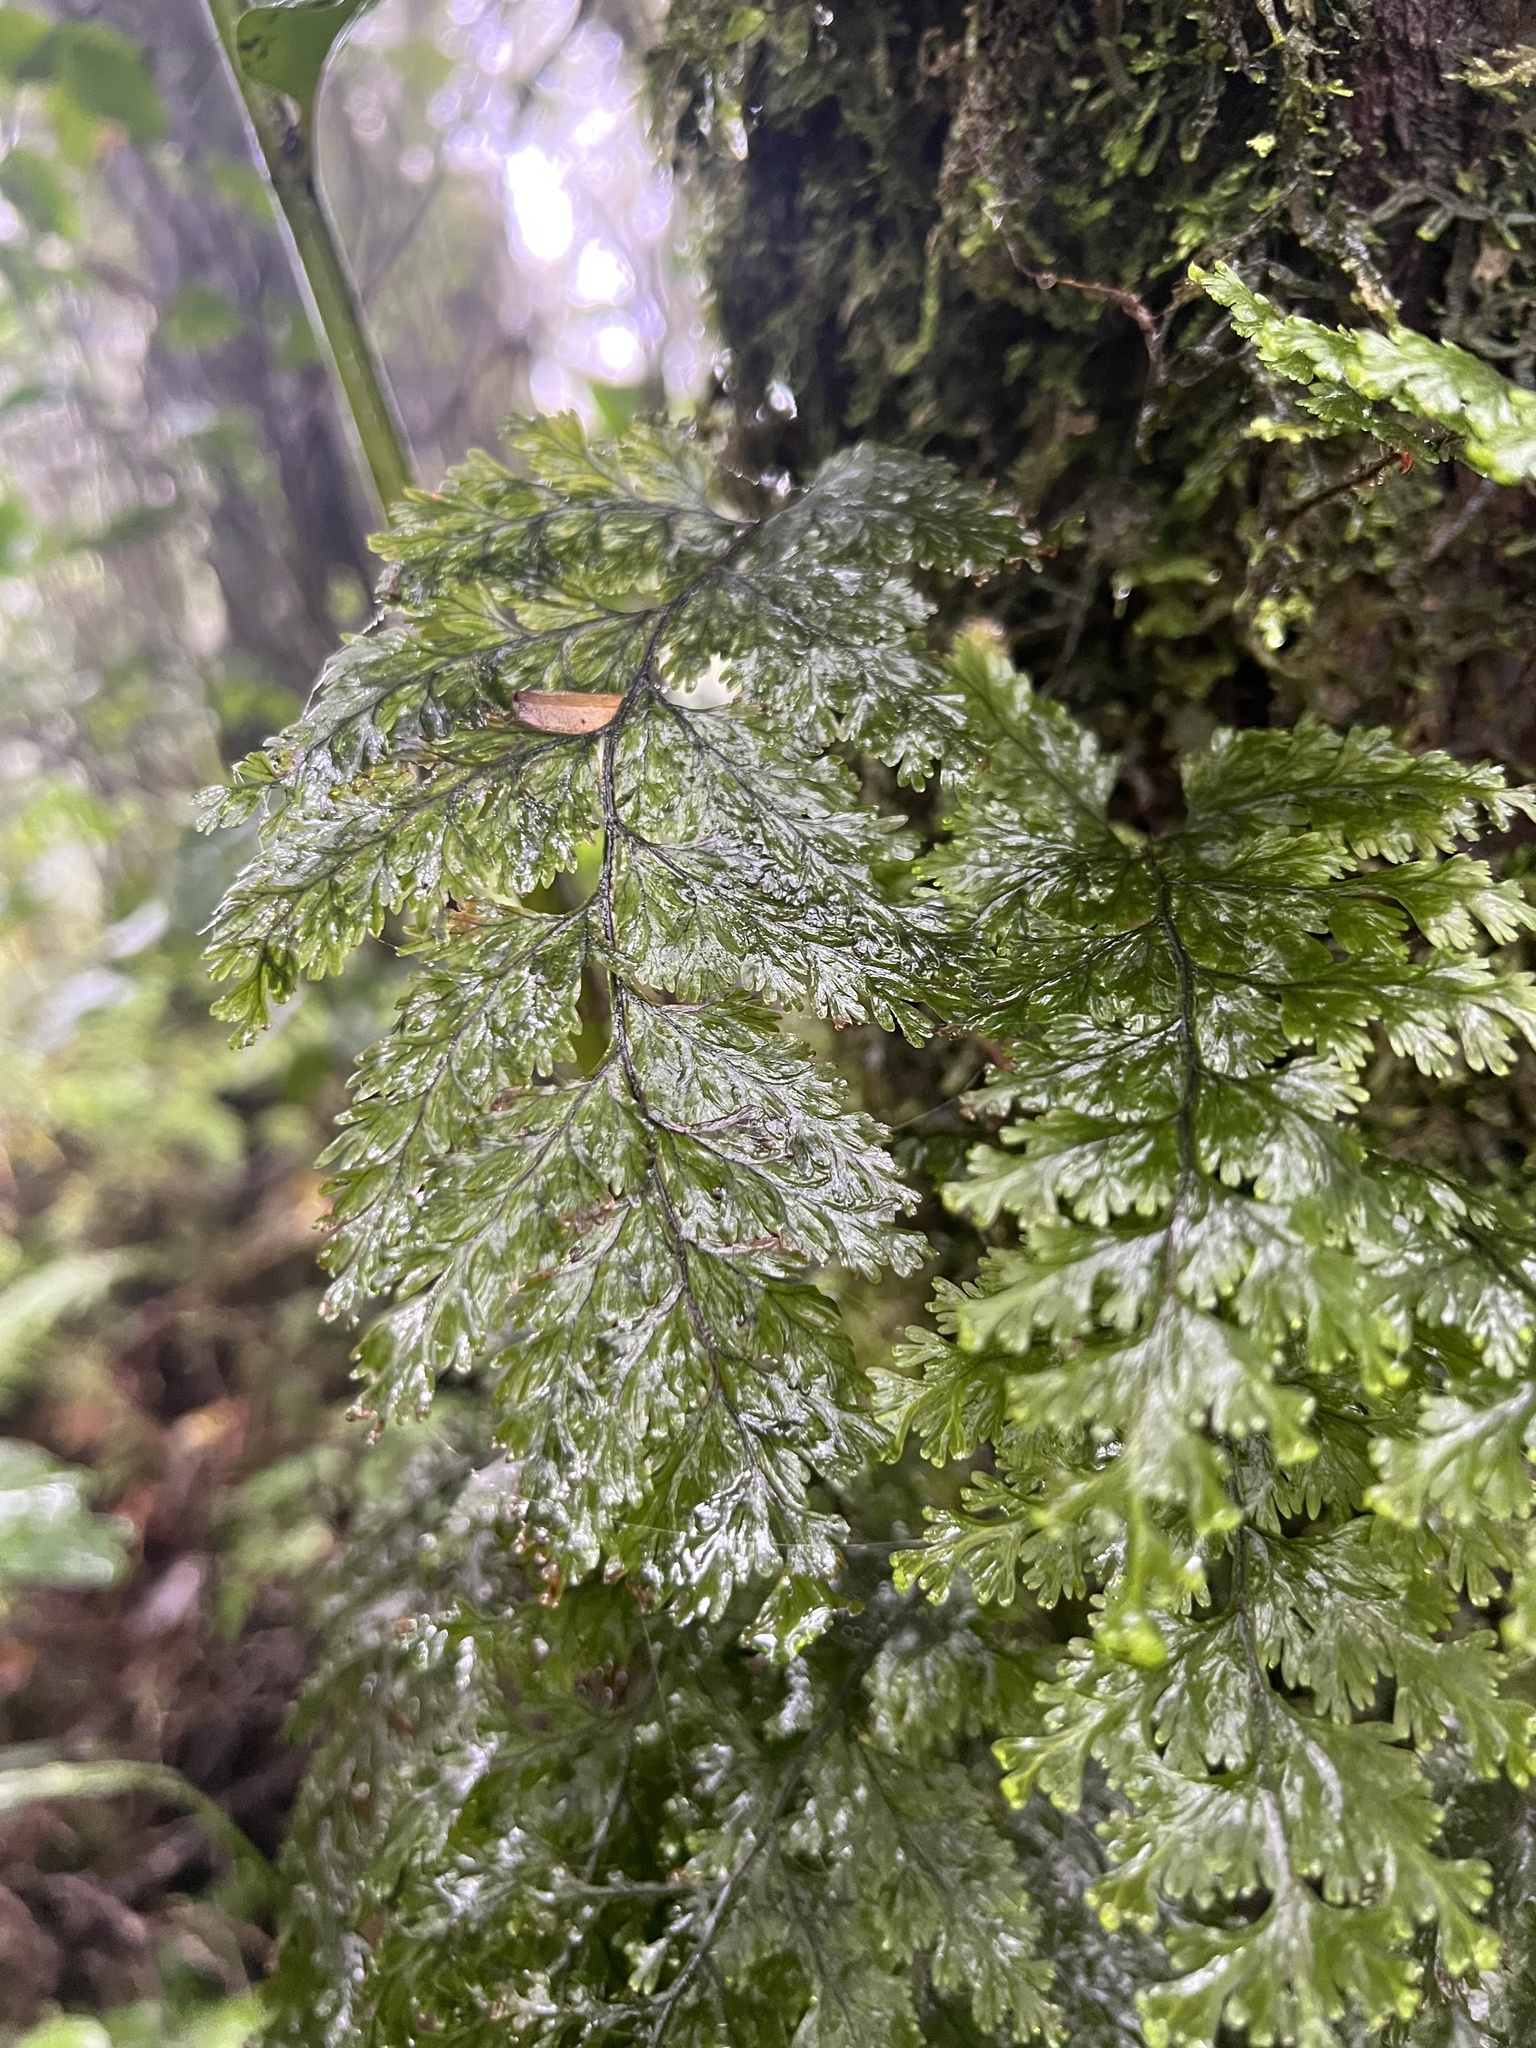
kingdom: Plantae
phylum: Tracheophyta
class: Polypodiopsida
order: Hymenophyllales
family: Hymenophyllaceae
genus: Hymenophyllum
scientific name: Hymenophyllum scabrum
